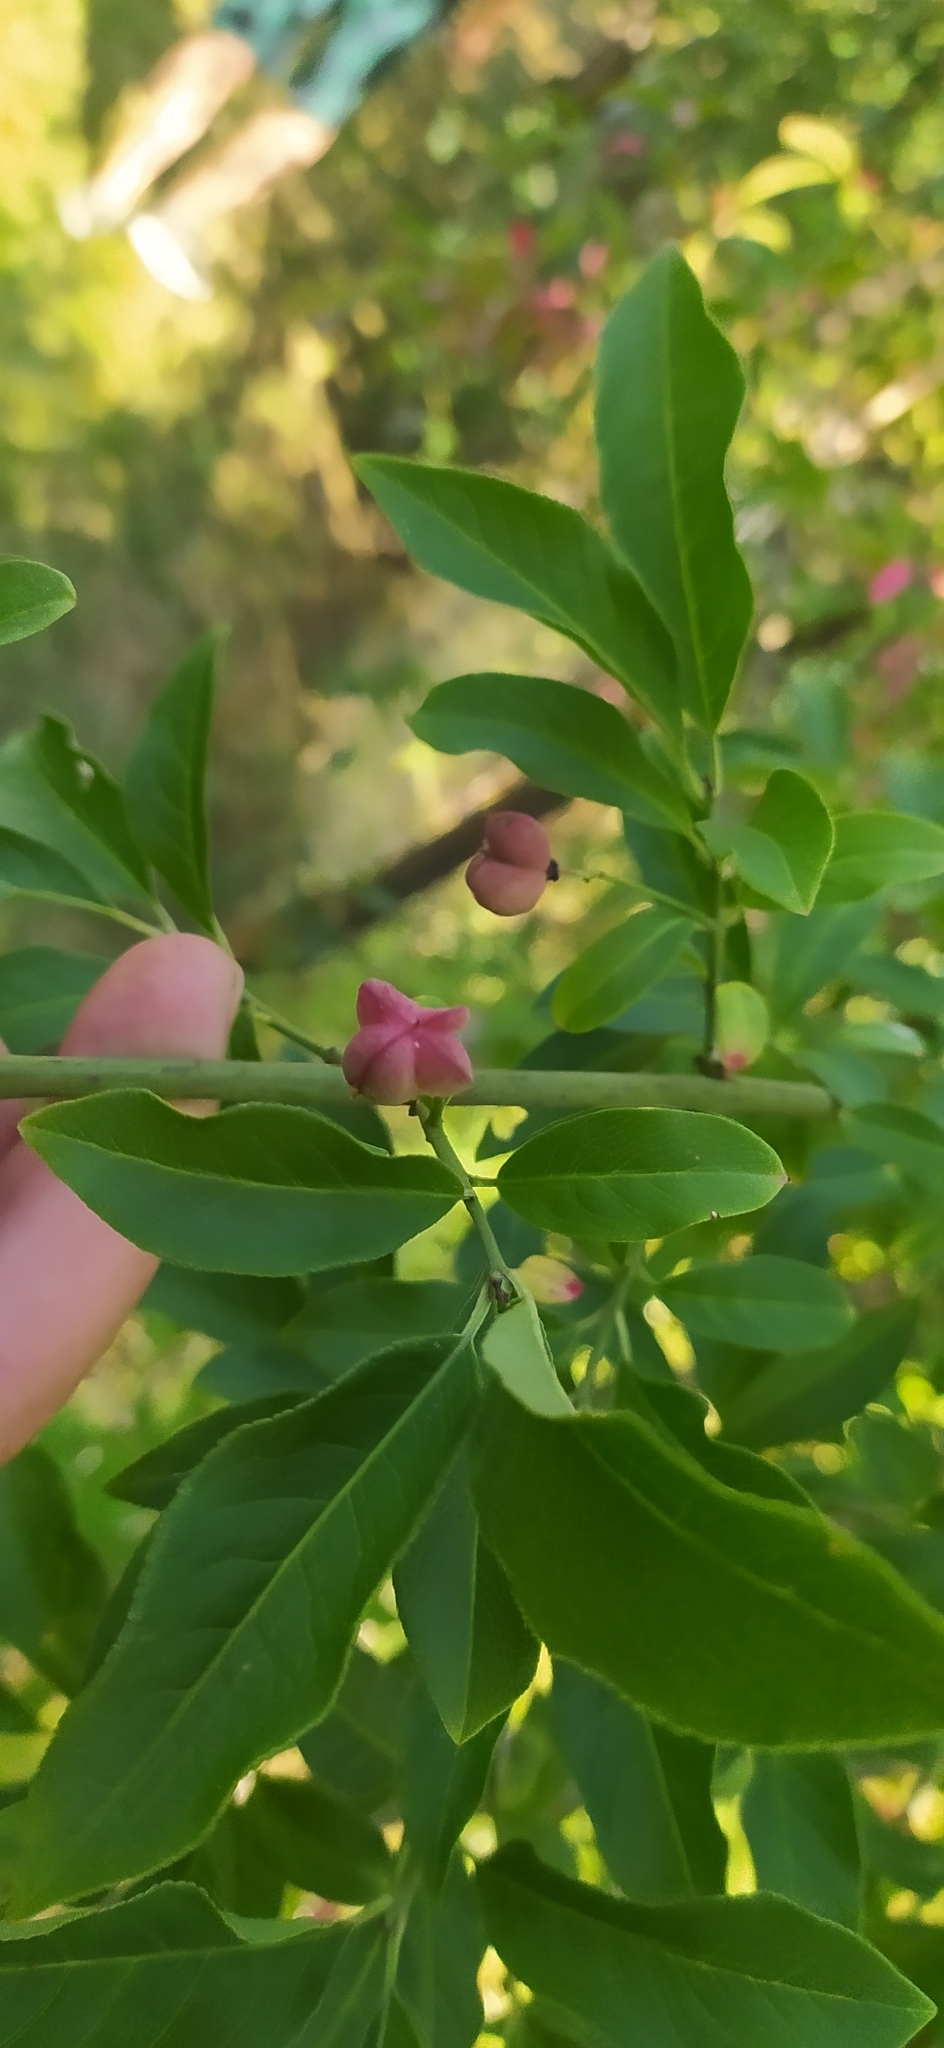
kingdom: Plantae
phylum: Tracheophyta
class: Magnoliopsida
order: Celastrales
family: Celastraceae
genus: Euonymus
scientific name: Euonymus europaeus
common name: Spindle
